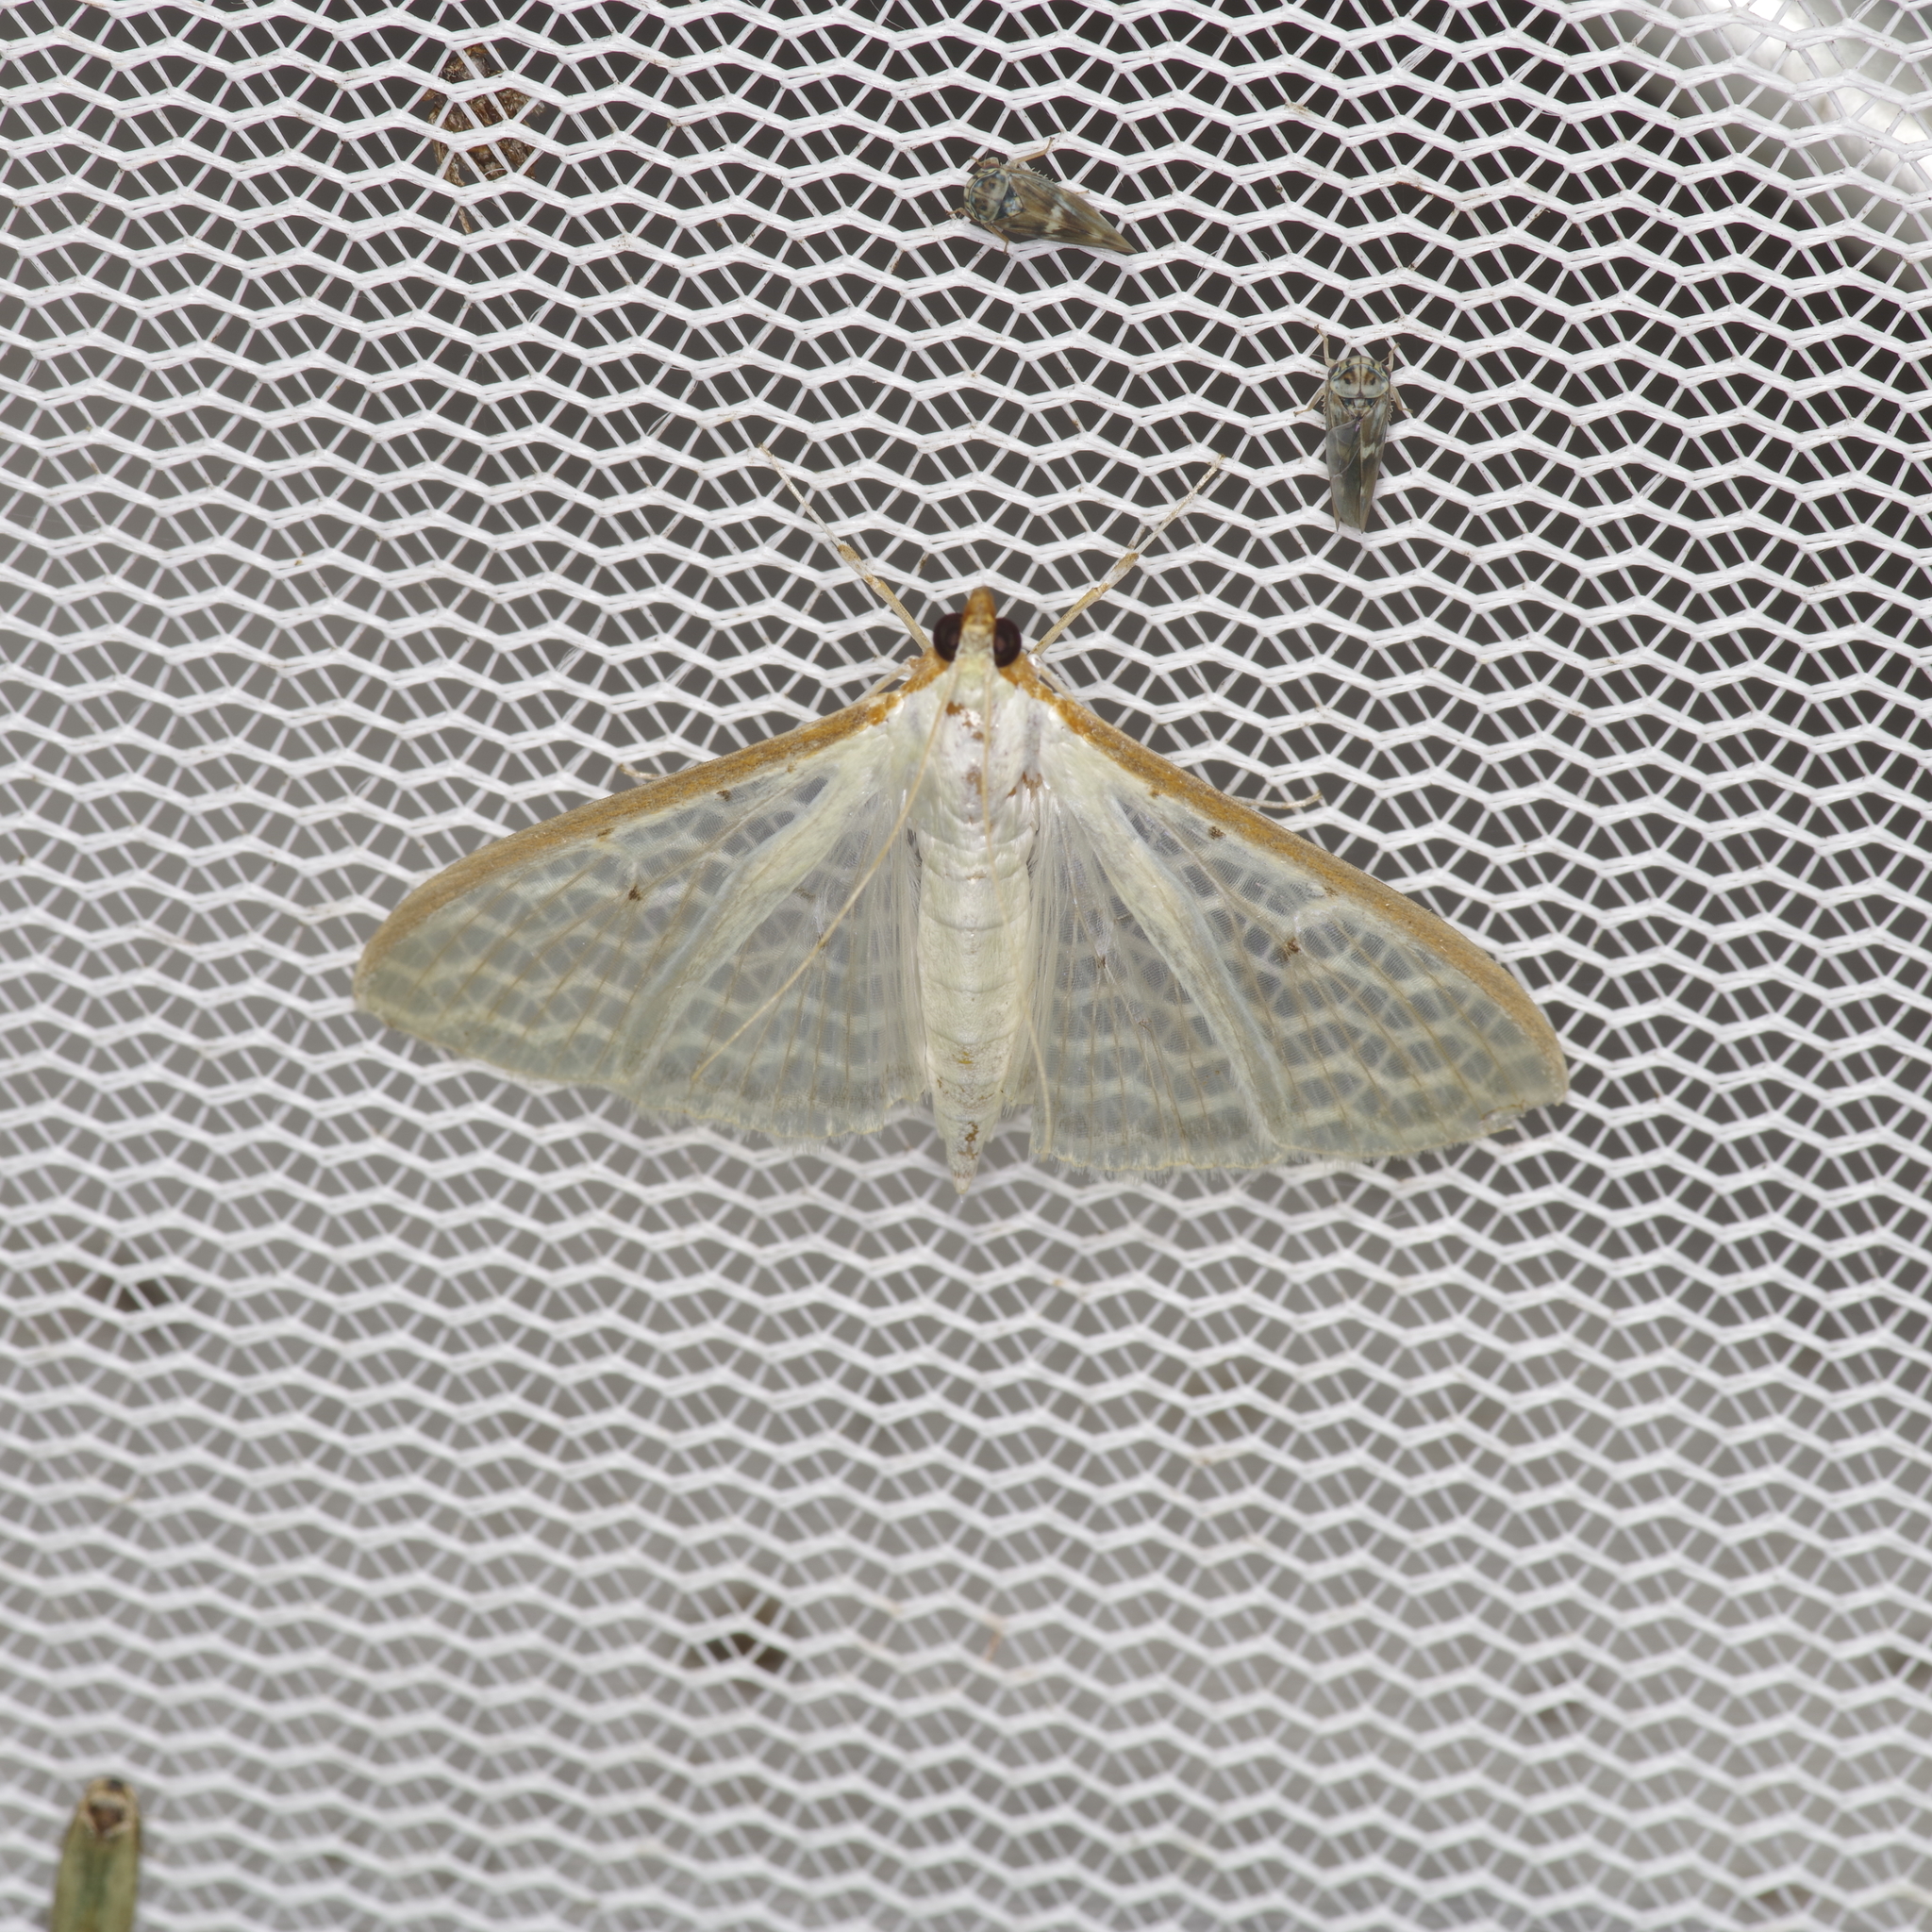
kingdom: Animalia
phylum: Arthropoda
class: Insecta
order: Lepidoptera
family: Crambidae
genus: Palpita
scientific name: Palpita quadristigmalis
